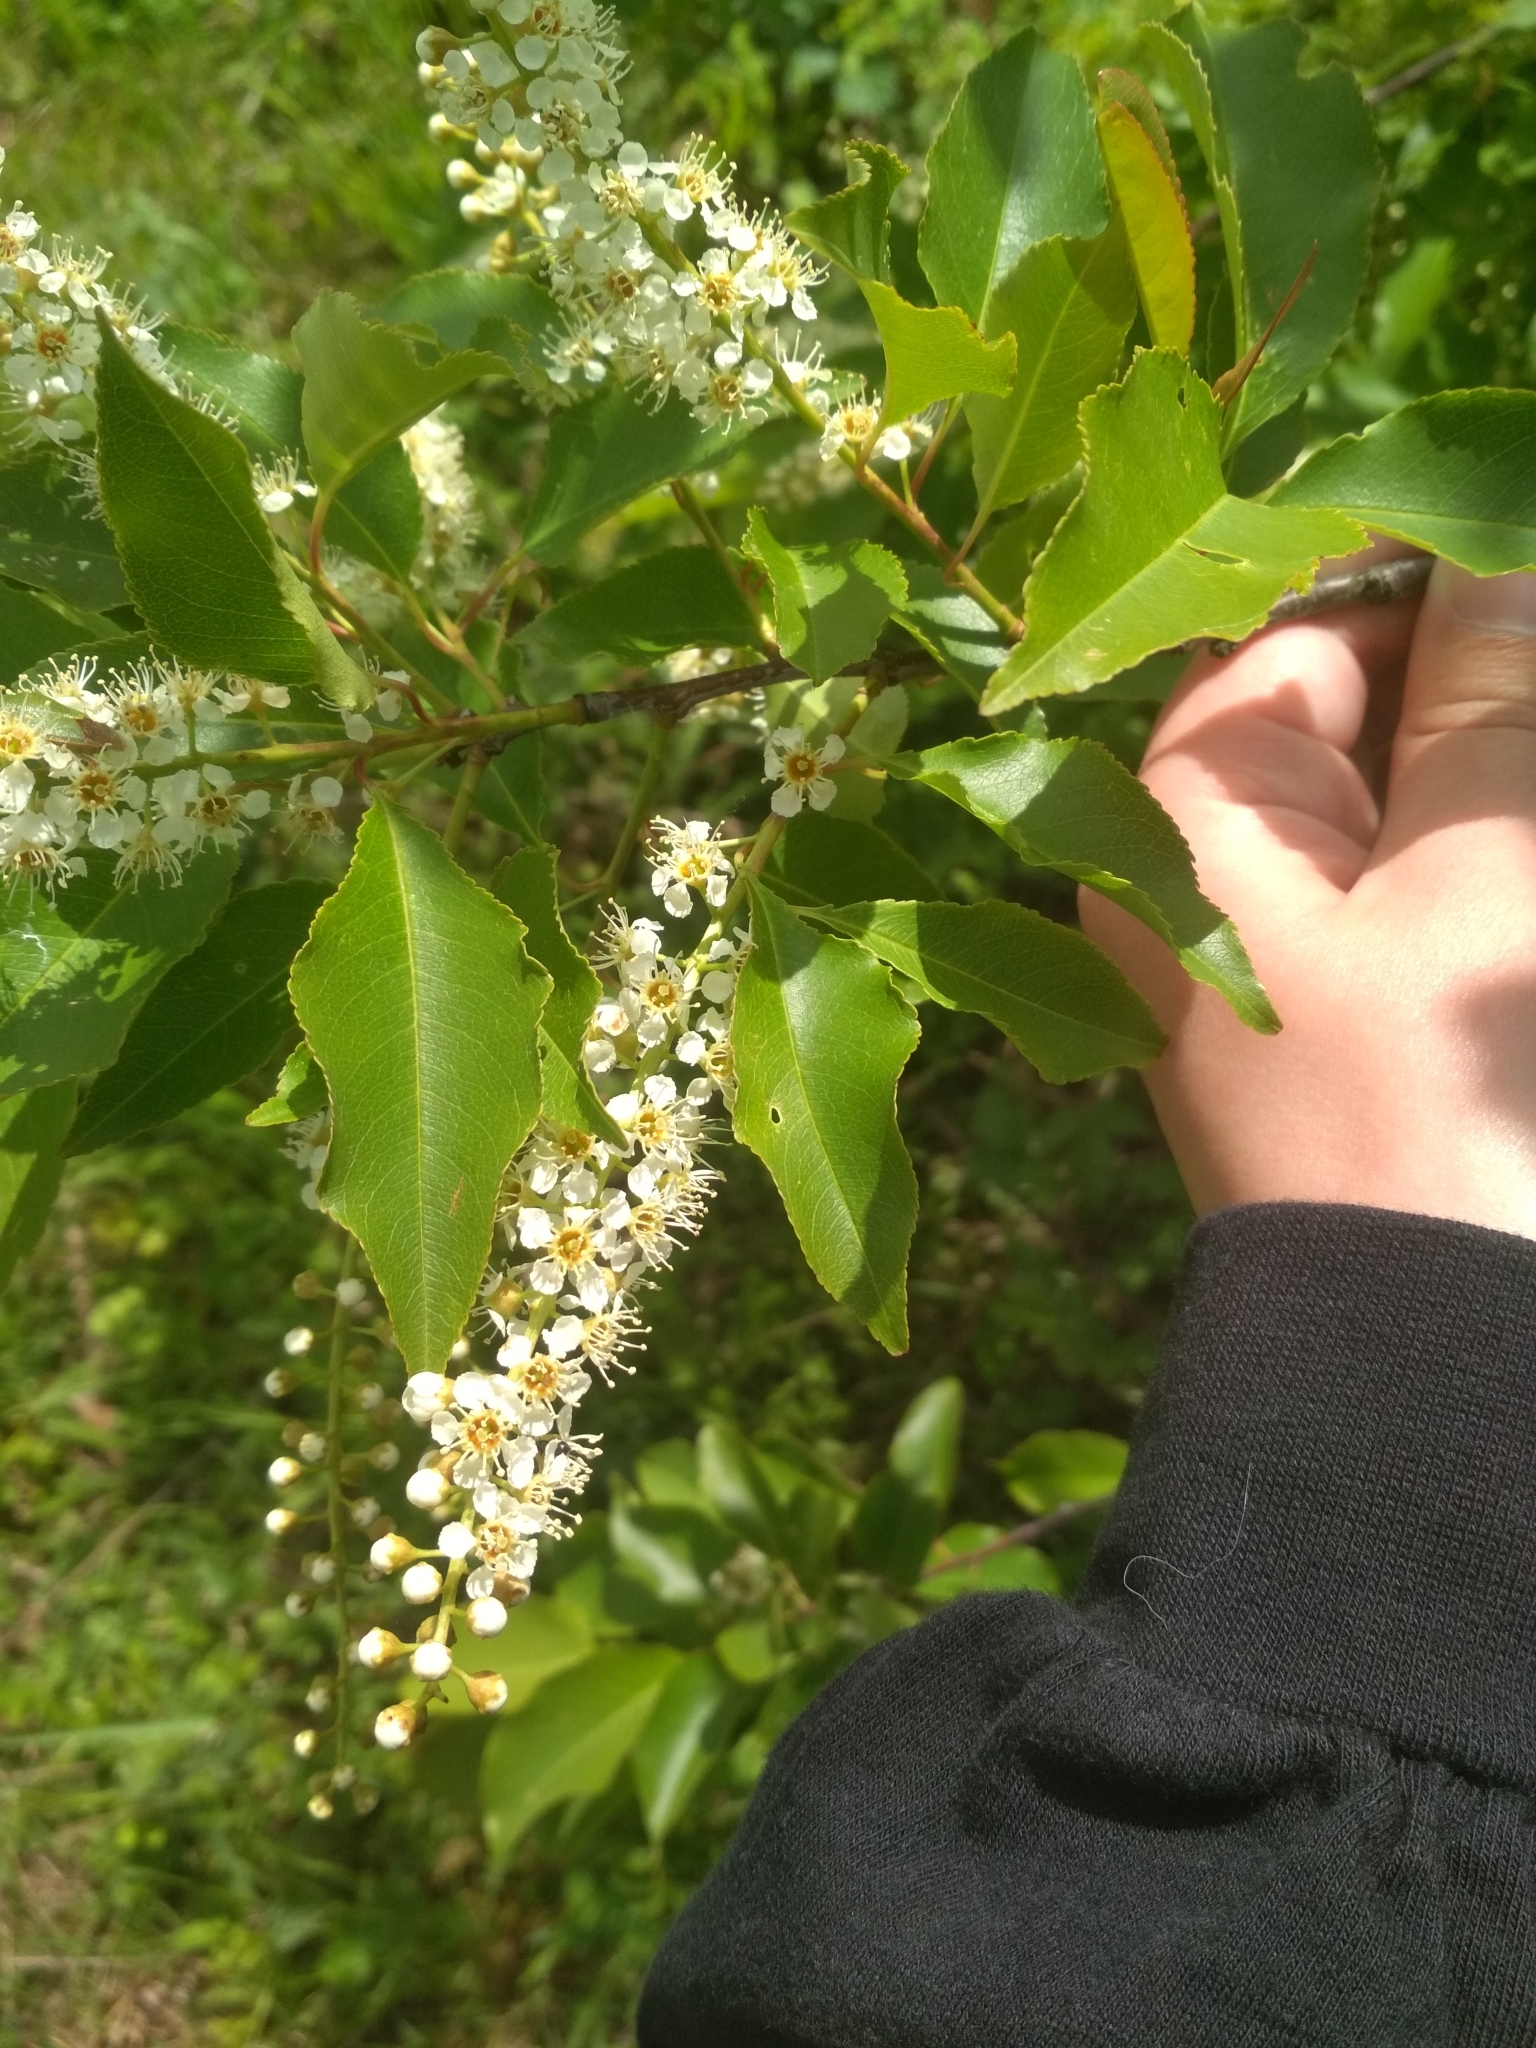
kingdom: Plantae
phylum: Tracheophyta
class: Magnoliopsida
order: Rosales
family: Rosaceae
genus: Prunus
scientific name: Prunus serotina
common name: Black cherry
